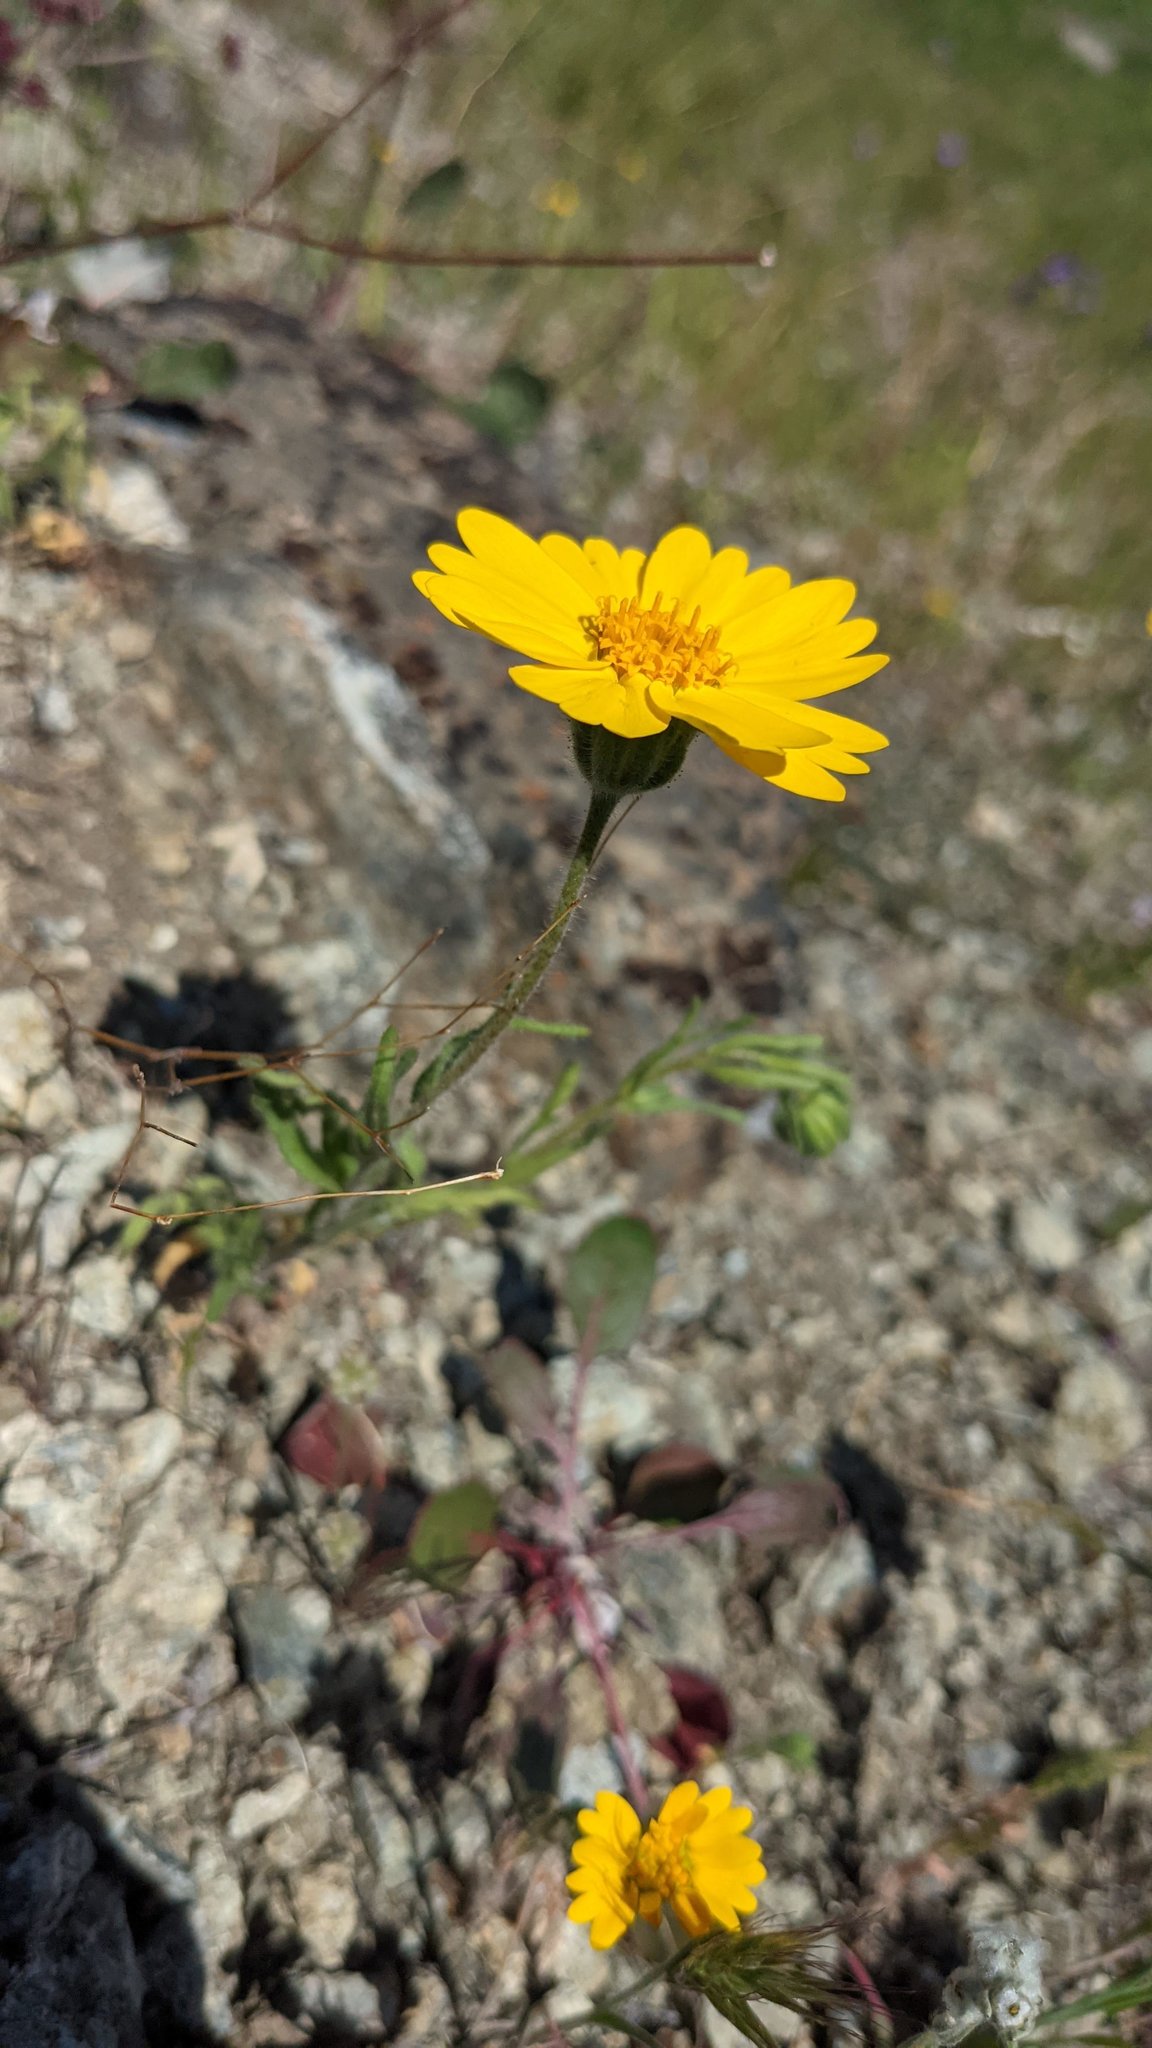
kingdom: Plantae
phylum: Tracheophyta
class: Magnoliopsida
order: Asterales
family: Asteraceae
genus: Layia
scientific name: Layia septentrionalis
